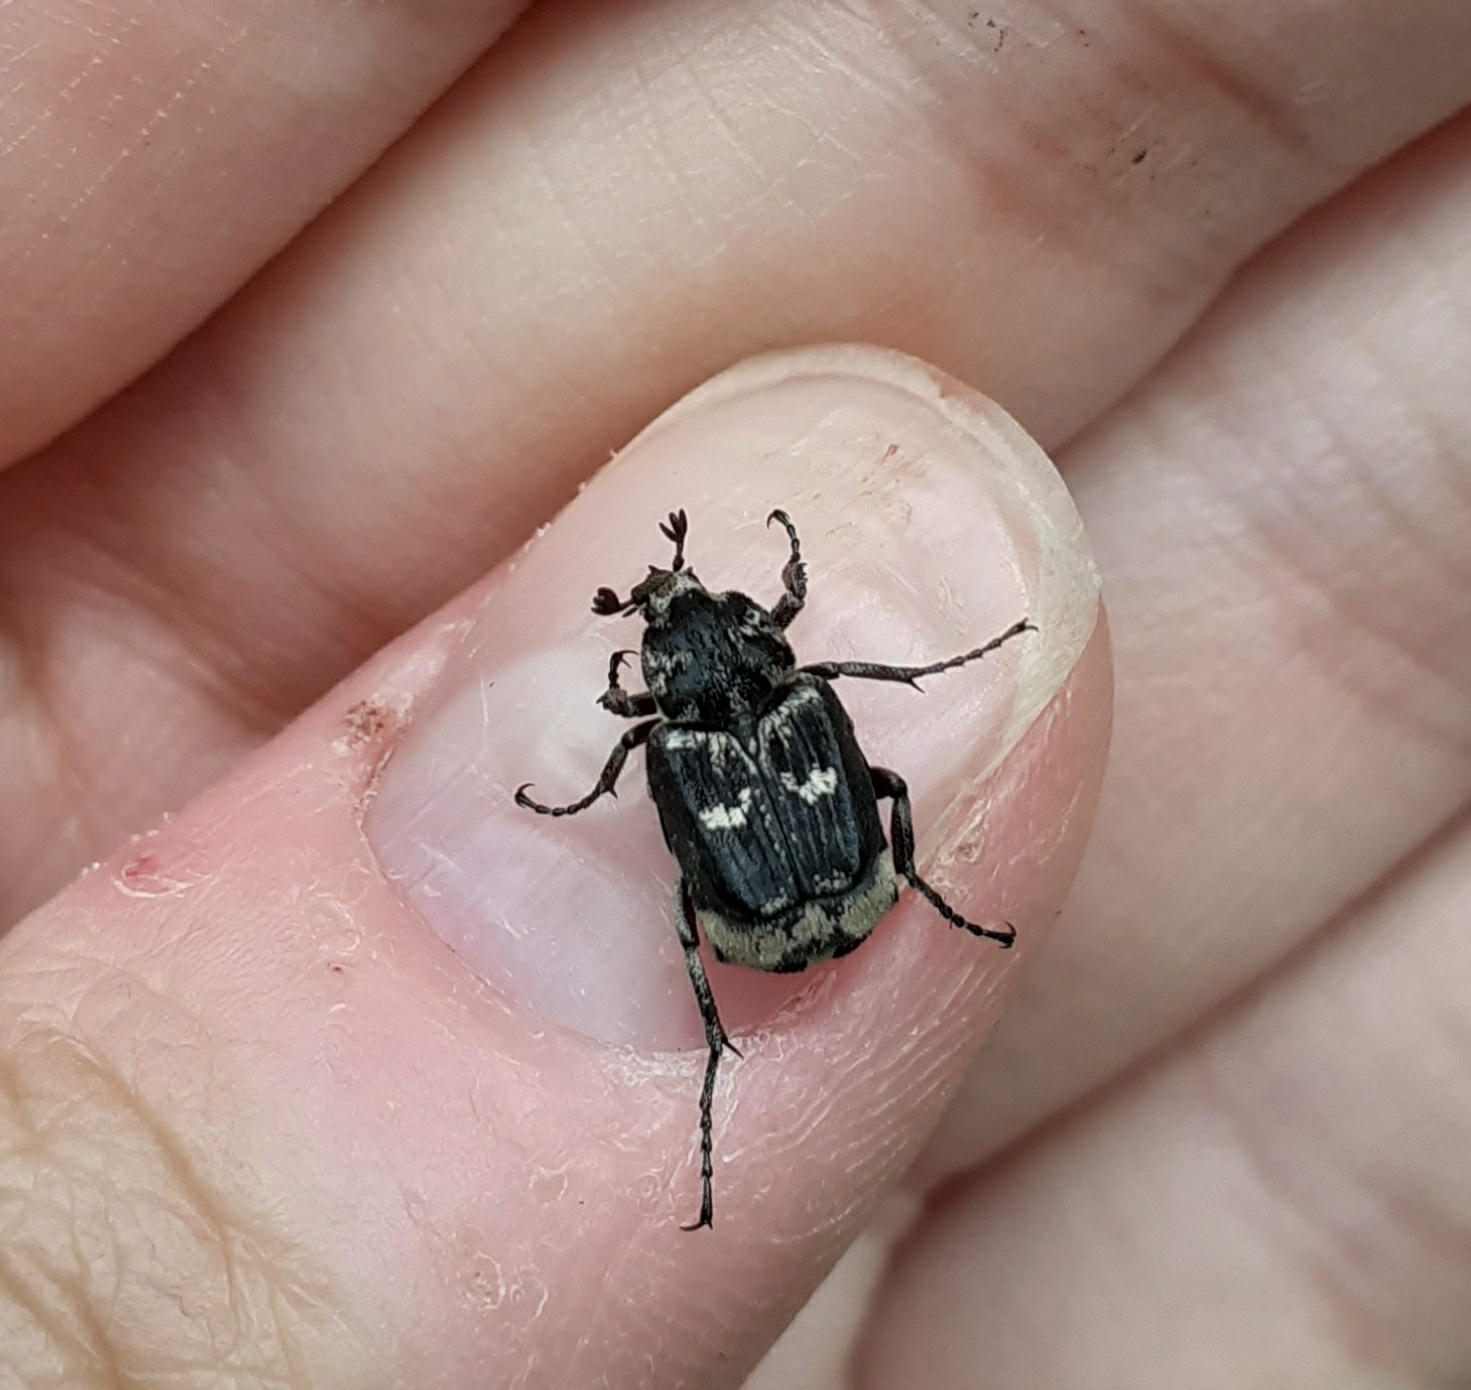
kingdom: Animalia
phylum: Arthropoda
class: Insecta
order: Coleoptera
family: Scarabaeidae
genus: Valgus
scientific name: Valgus hemipterus
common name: Bug flower chafer
